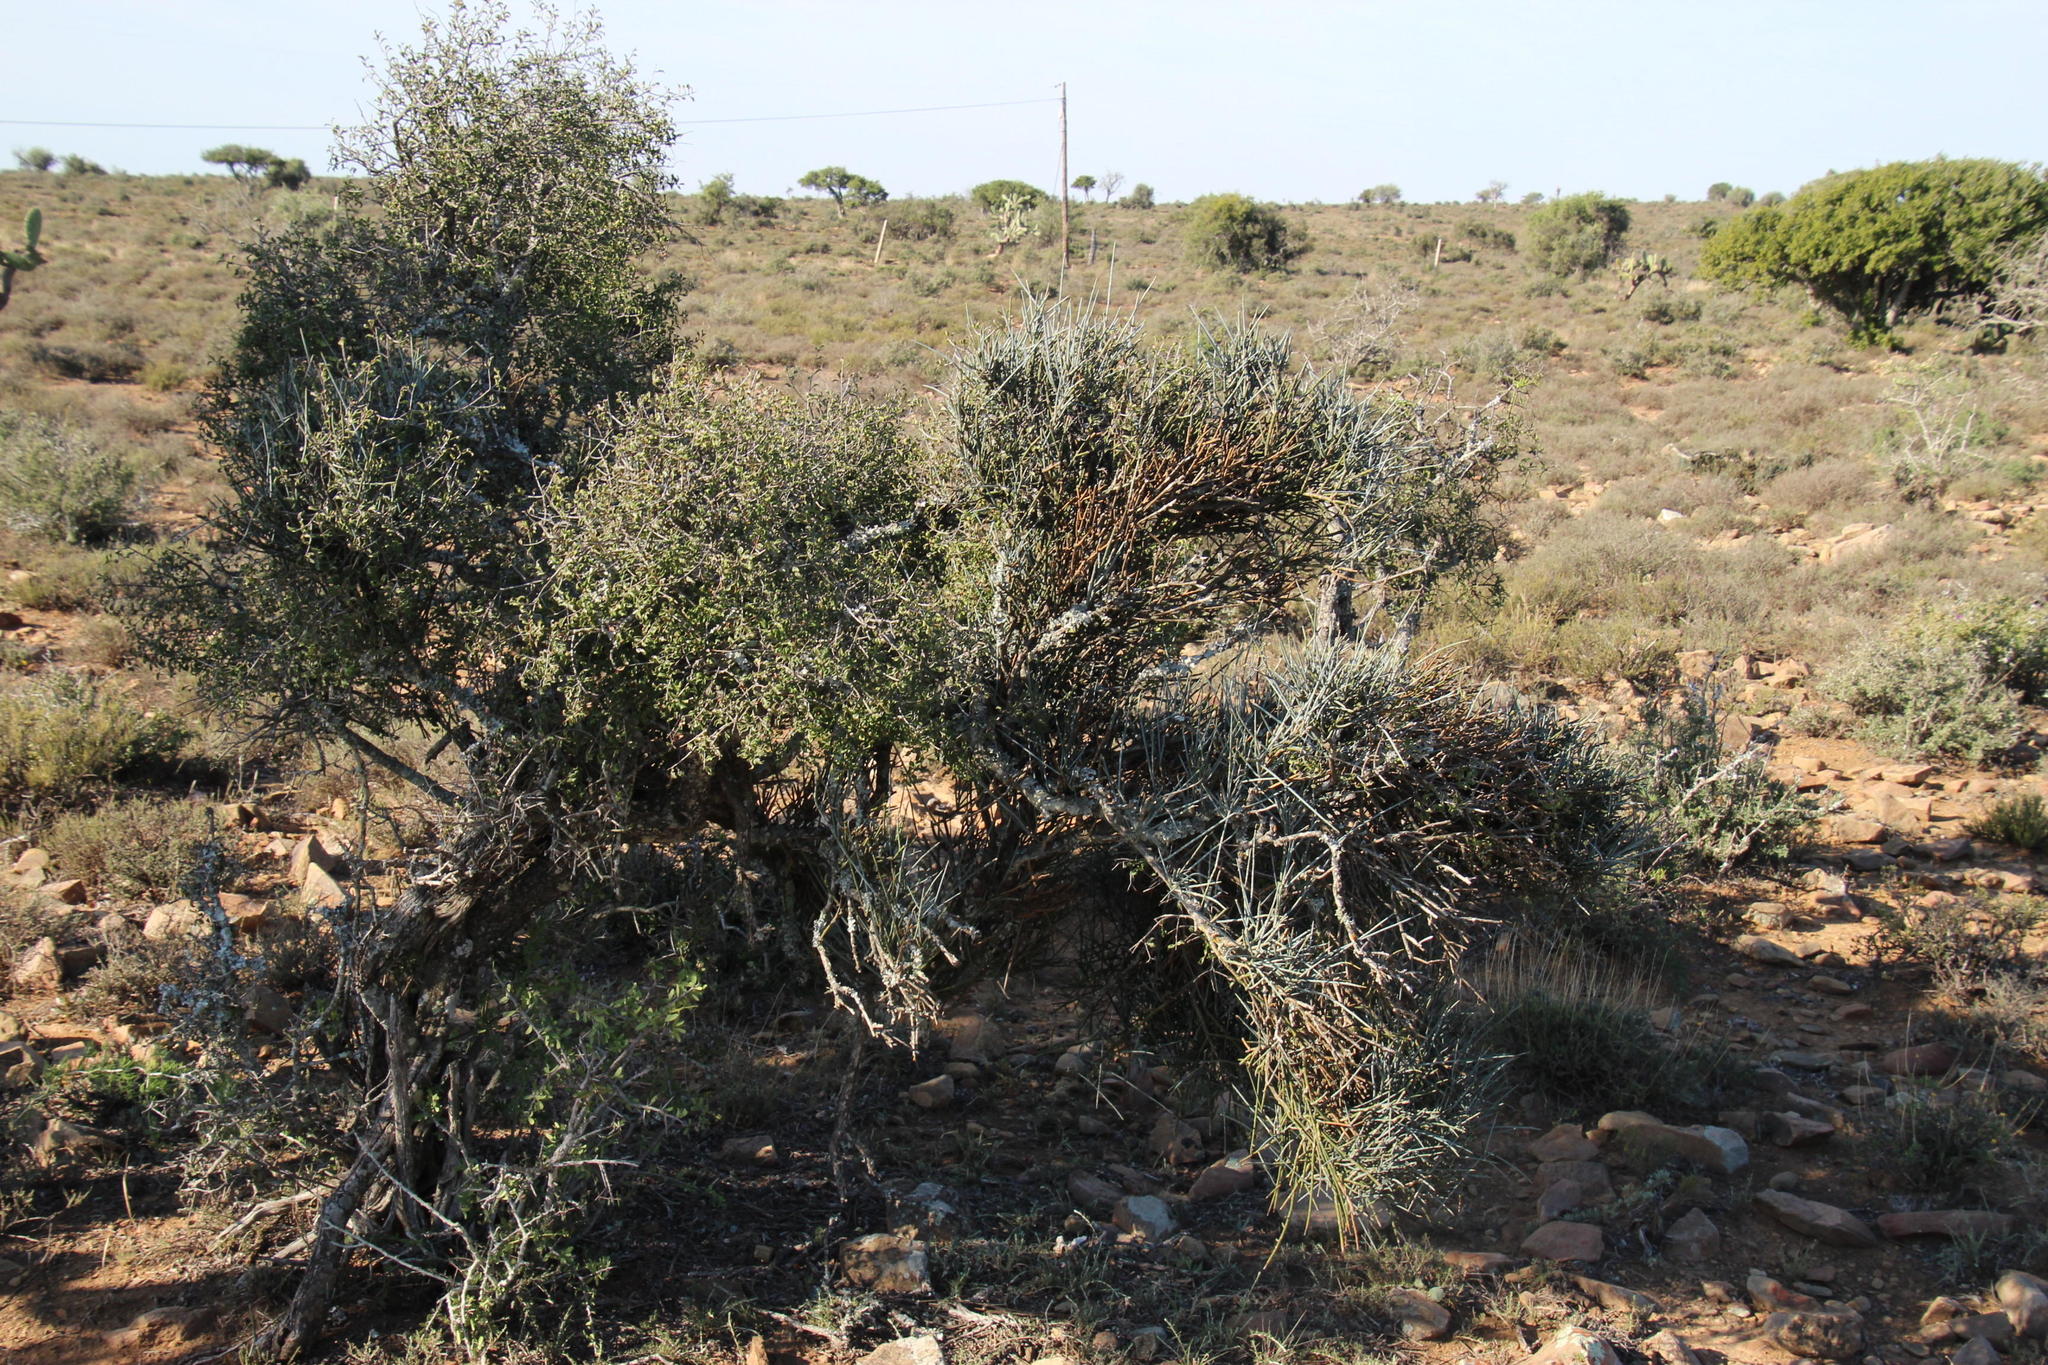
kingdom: Plantae
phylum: Tracheophyta
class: Magnoliopsida
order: Brassicales
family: Capparaceae
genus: Cadaba
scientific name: Cadaba aphylla
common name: Black storm
